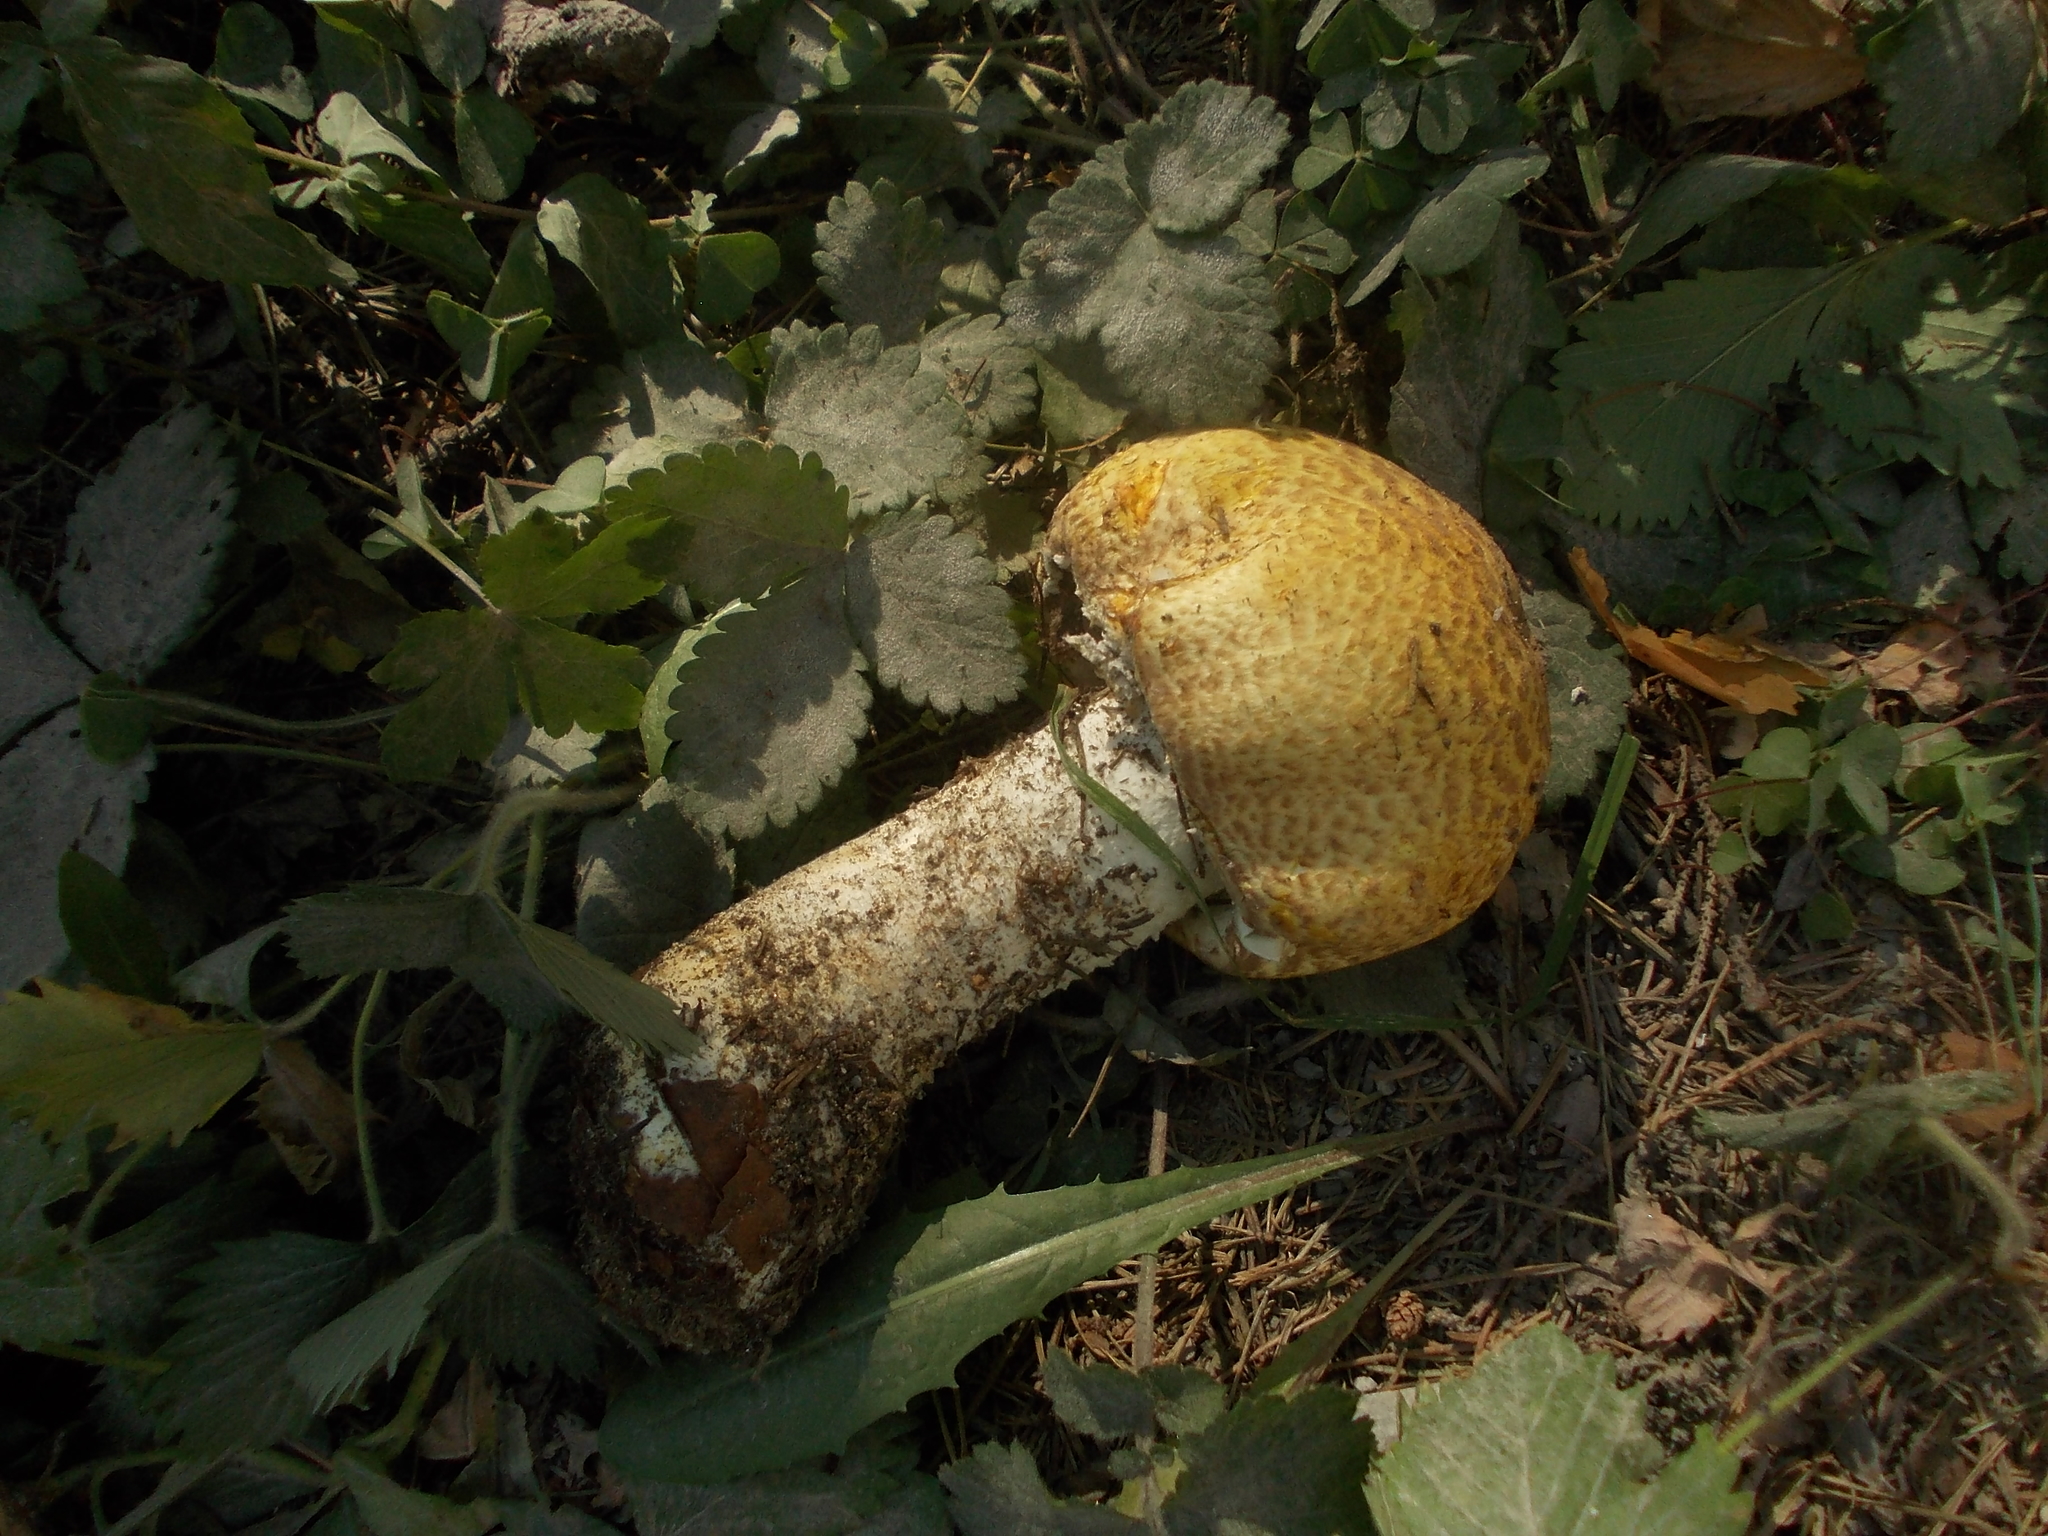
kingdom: Fungi
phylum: Basidiomycota
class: Agaricomycetes
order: Agaricales
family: Agaricaceae
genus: Agaricus
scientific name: Agaricus augustus
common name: Prince
